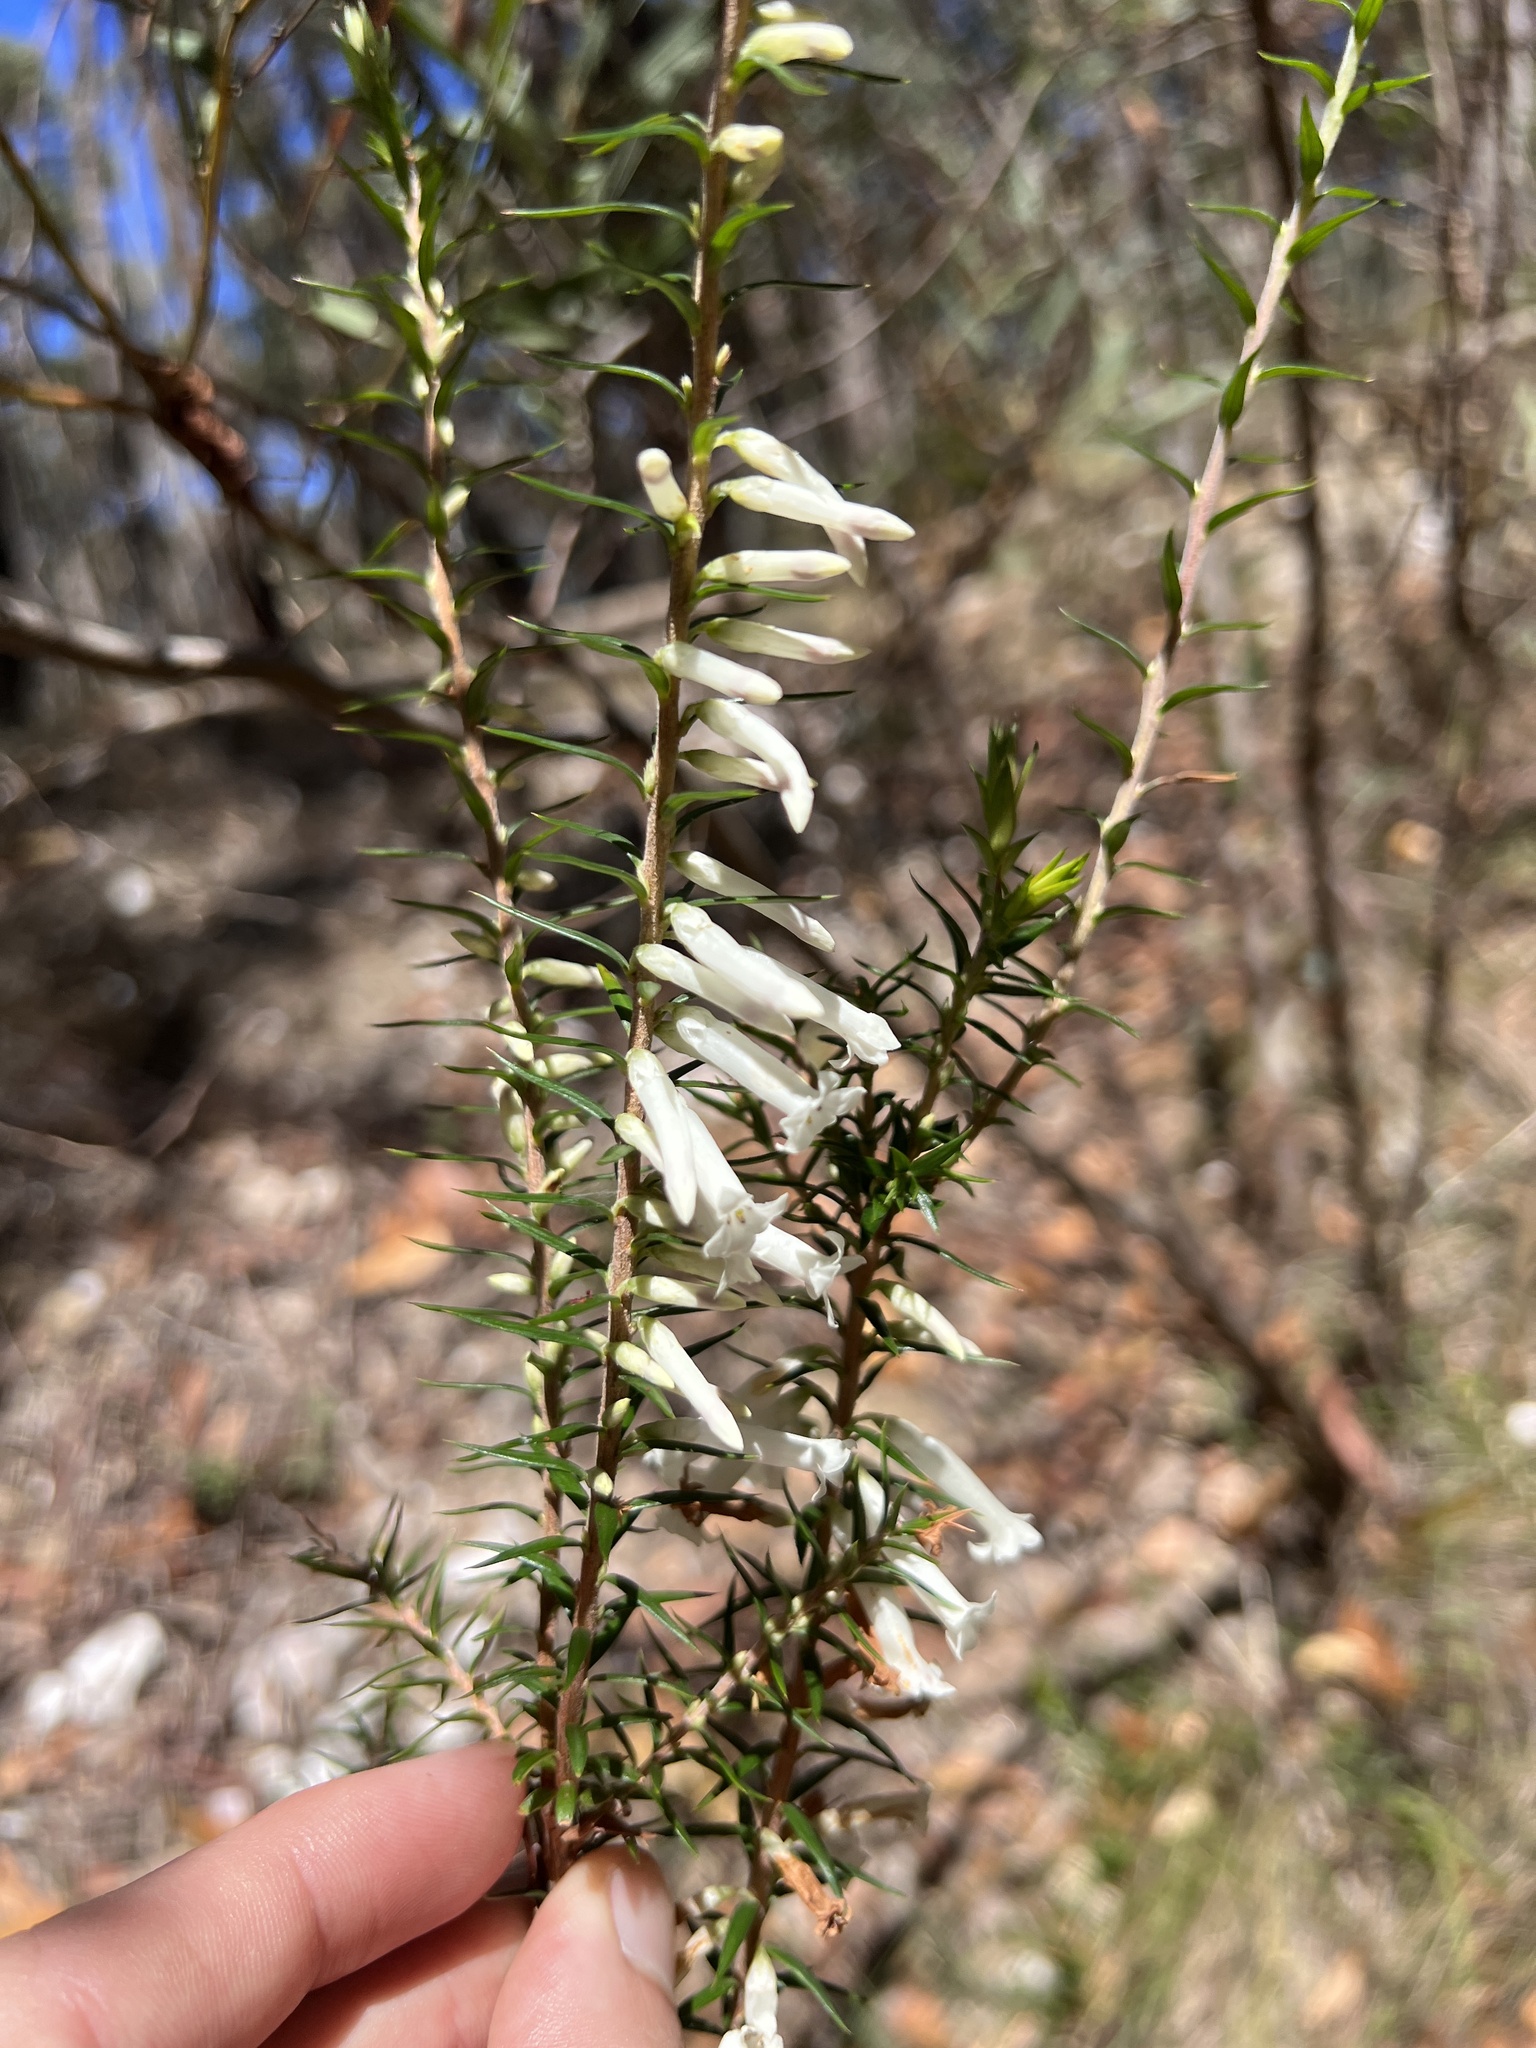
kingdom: Plantae
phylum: Tracheophyta
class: Magnoliopsida
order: Ericales
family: Ericaceae
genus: Epacris
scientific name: Epacris impressa
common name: Common-heath
